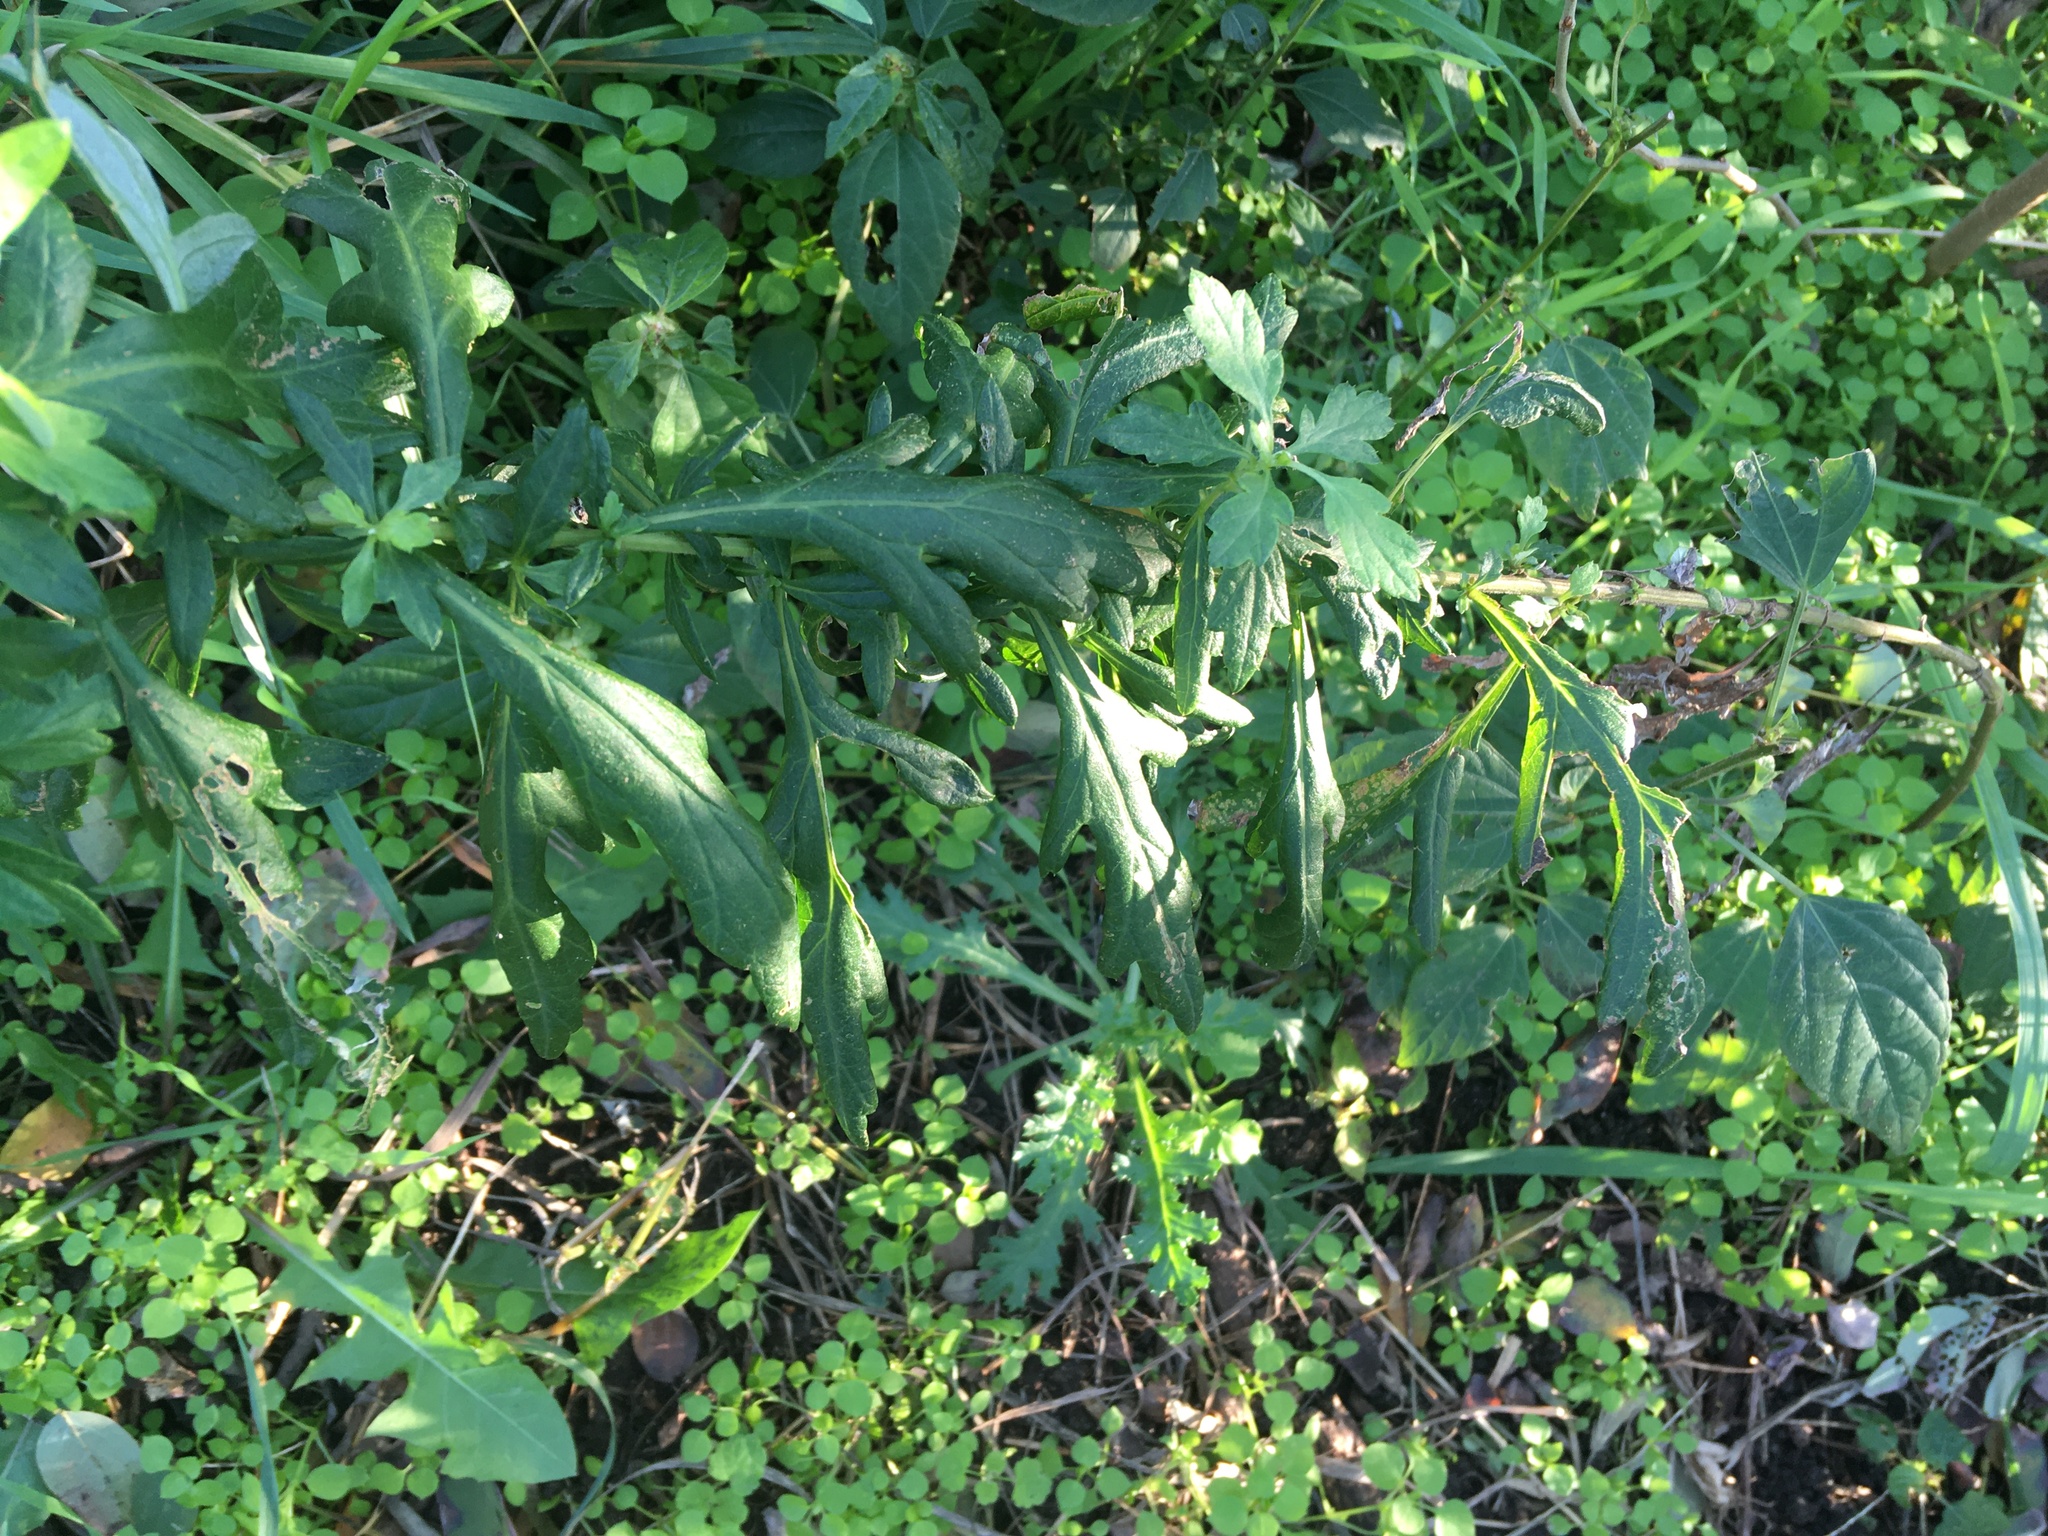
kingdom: Plantae
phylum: Tracheophyta
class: Magnoliopsida
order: Asterales
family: Asteraceae
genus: Artemisia
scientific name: Artemisia vulgaris
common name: Mugwort
